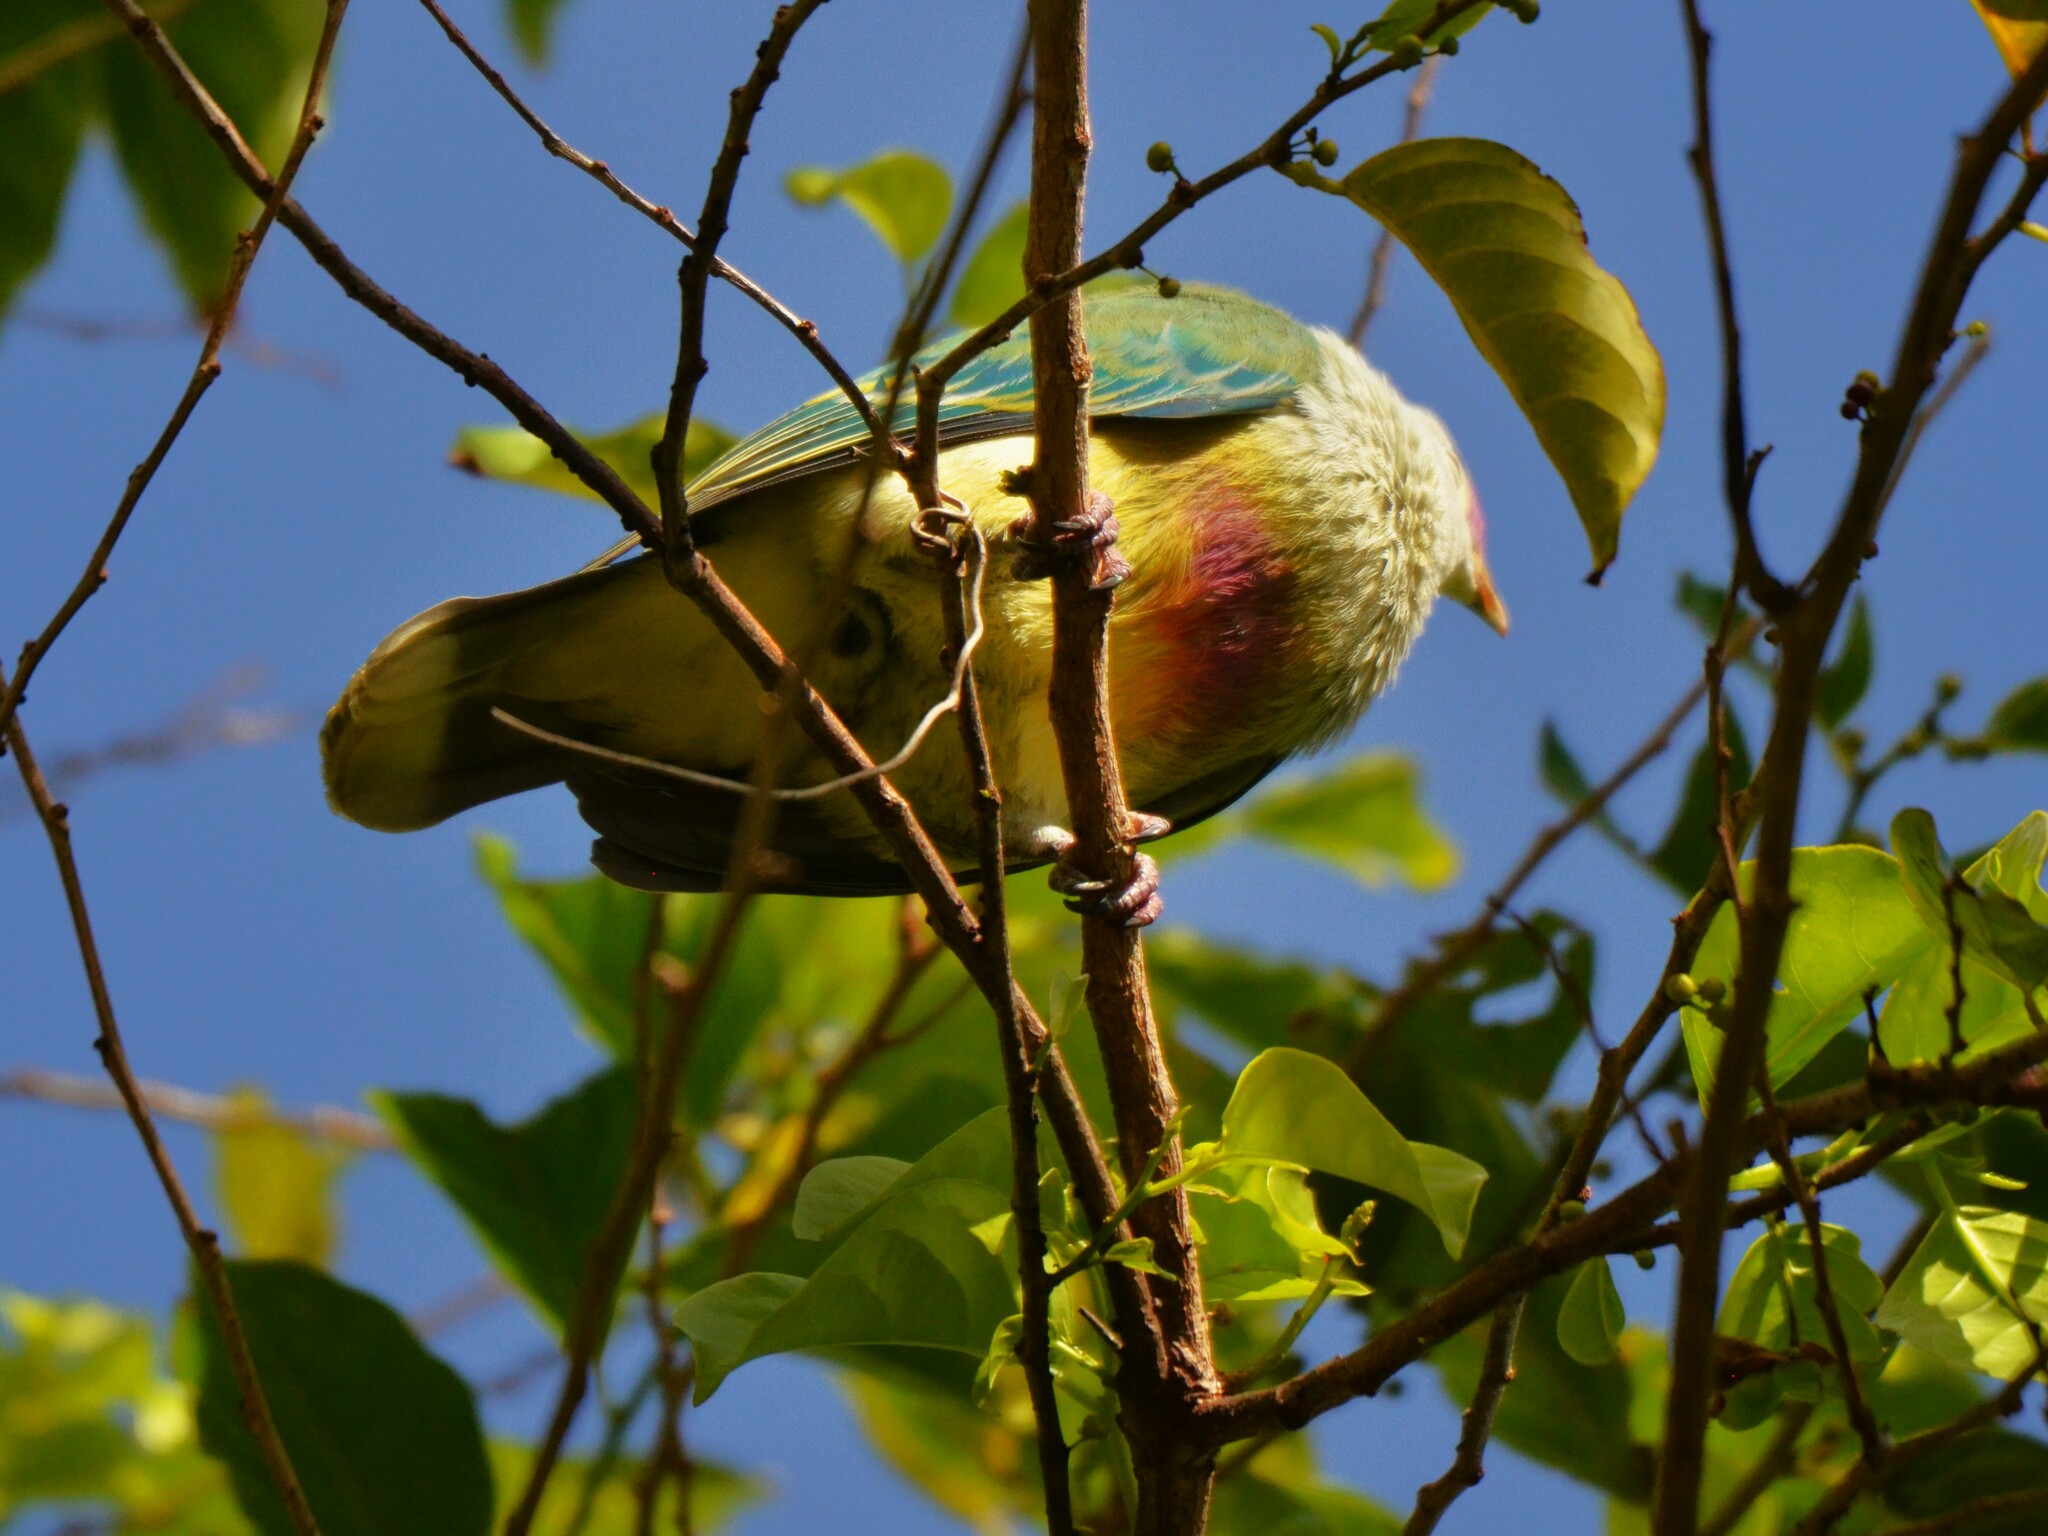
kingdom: Animalia
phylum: Chordata
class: Aves
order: Columbiformes
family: Columbidae
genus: Ptilinopus
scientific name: Ptilinopus rarotongensis
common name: Lilac-crowned fruit dove
